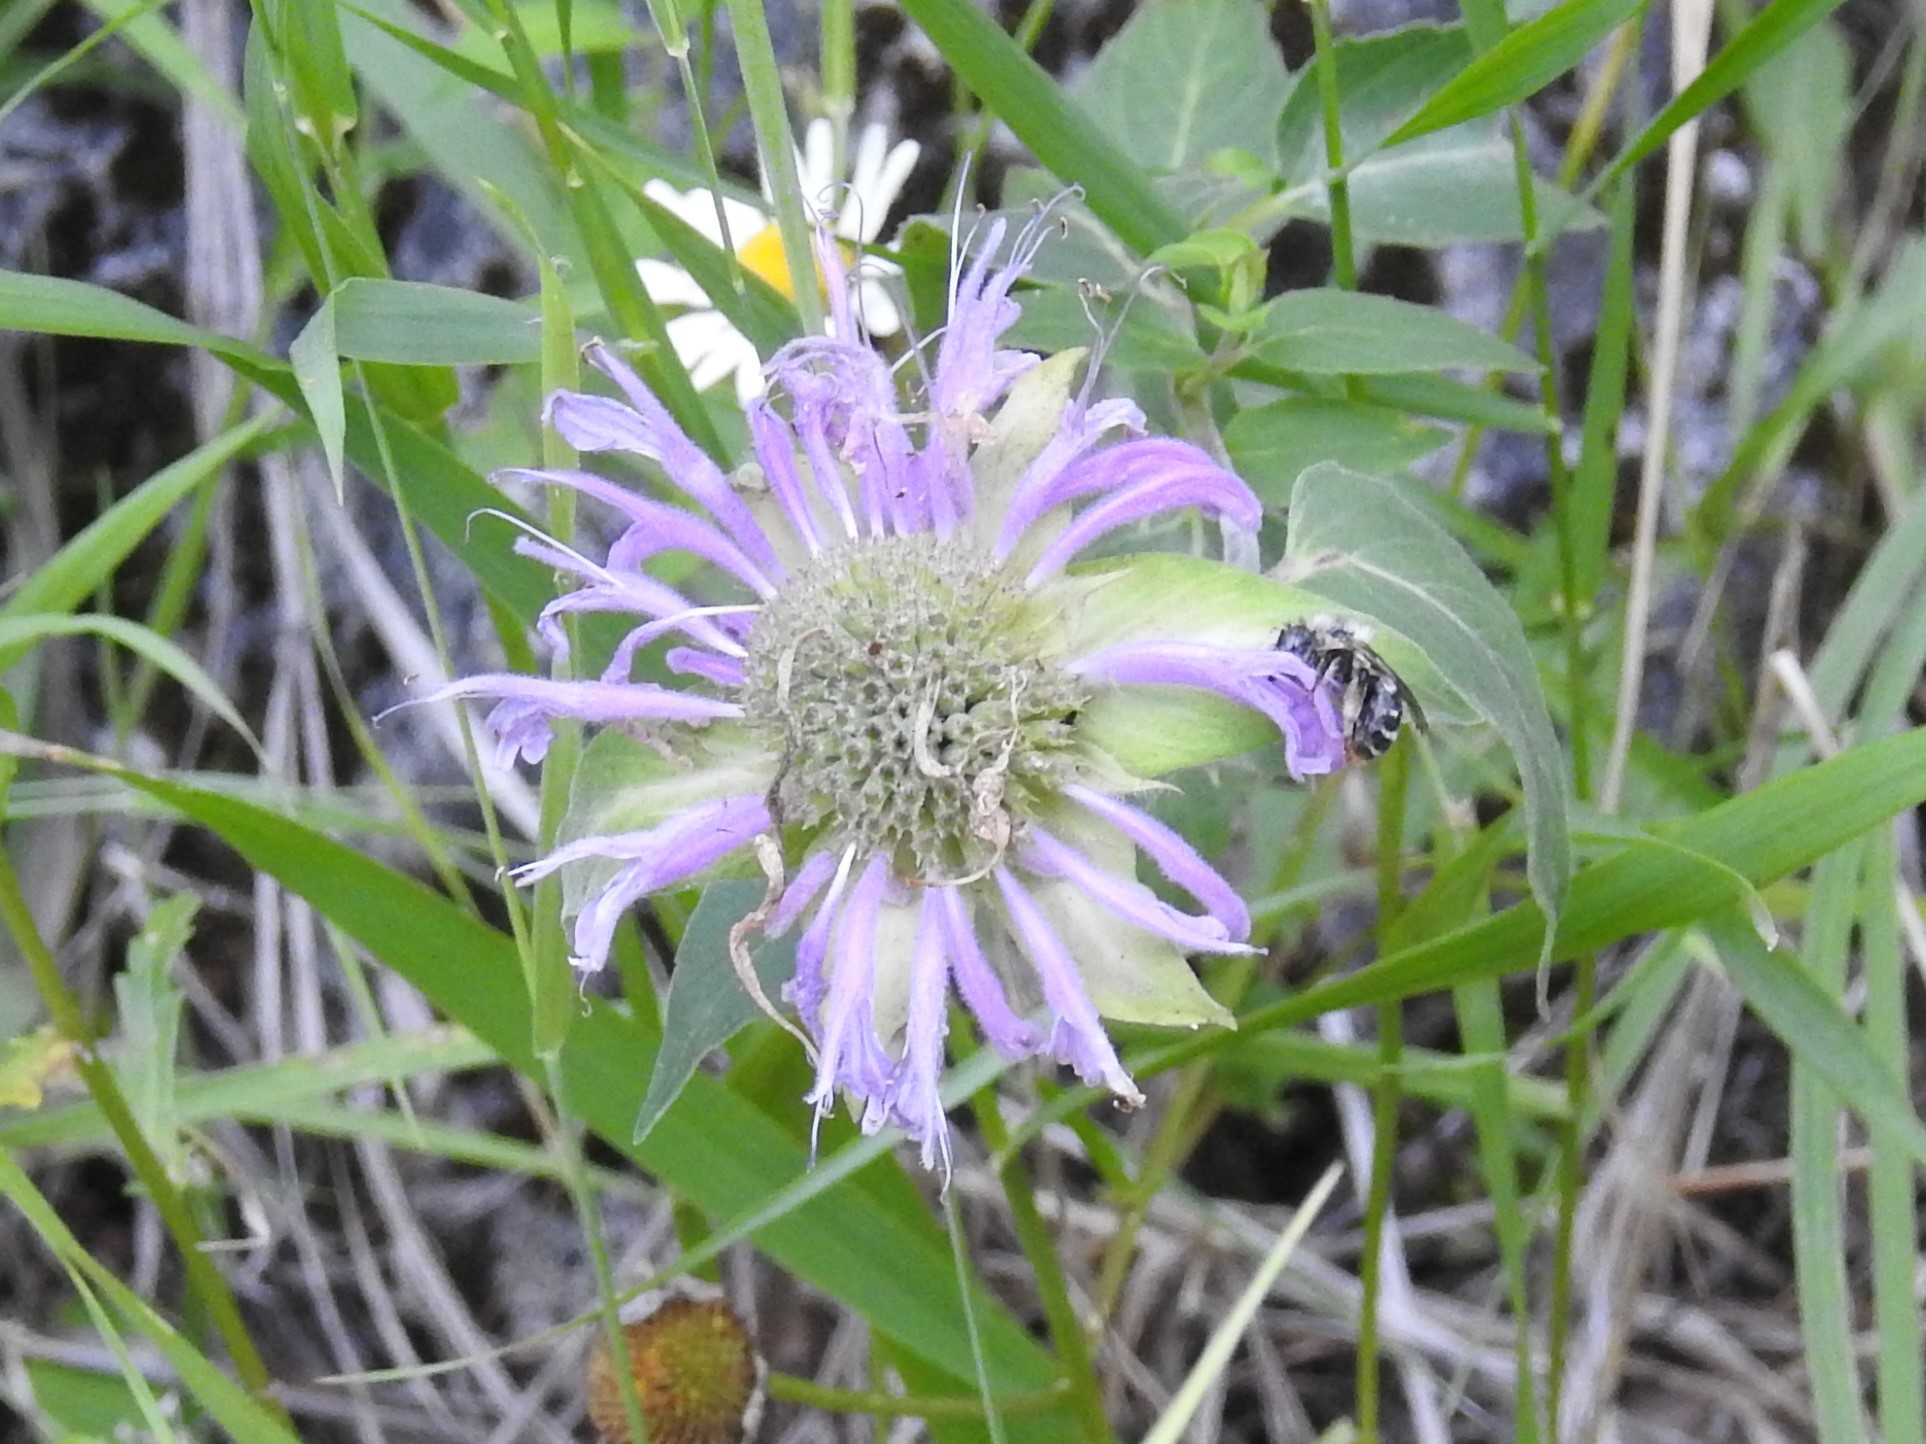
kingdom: Plantae
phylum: Tracheophyta
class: Magnoliopsida
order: Lamiales
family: Lamiaceae
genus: Monarda
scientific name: Monarda fistulosa
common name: Purple beebalm
